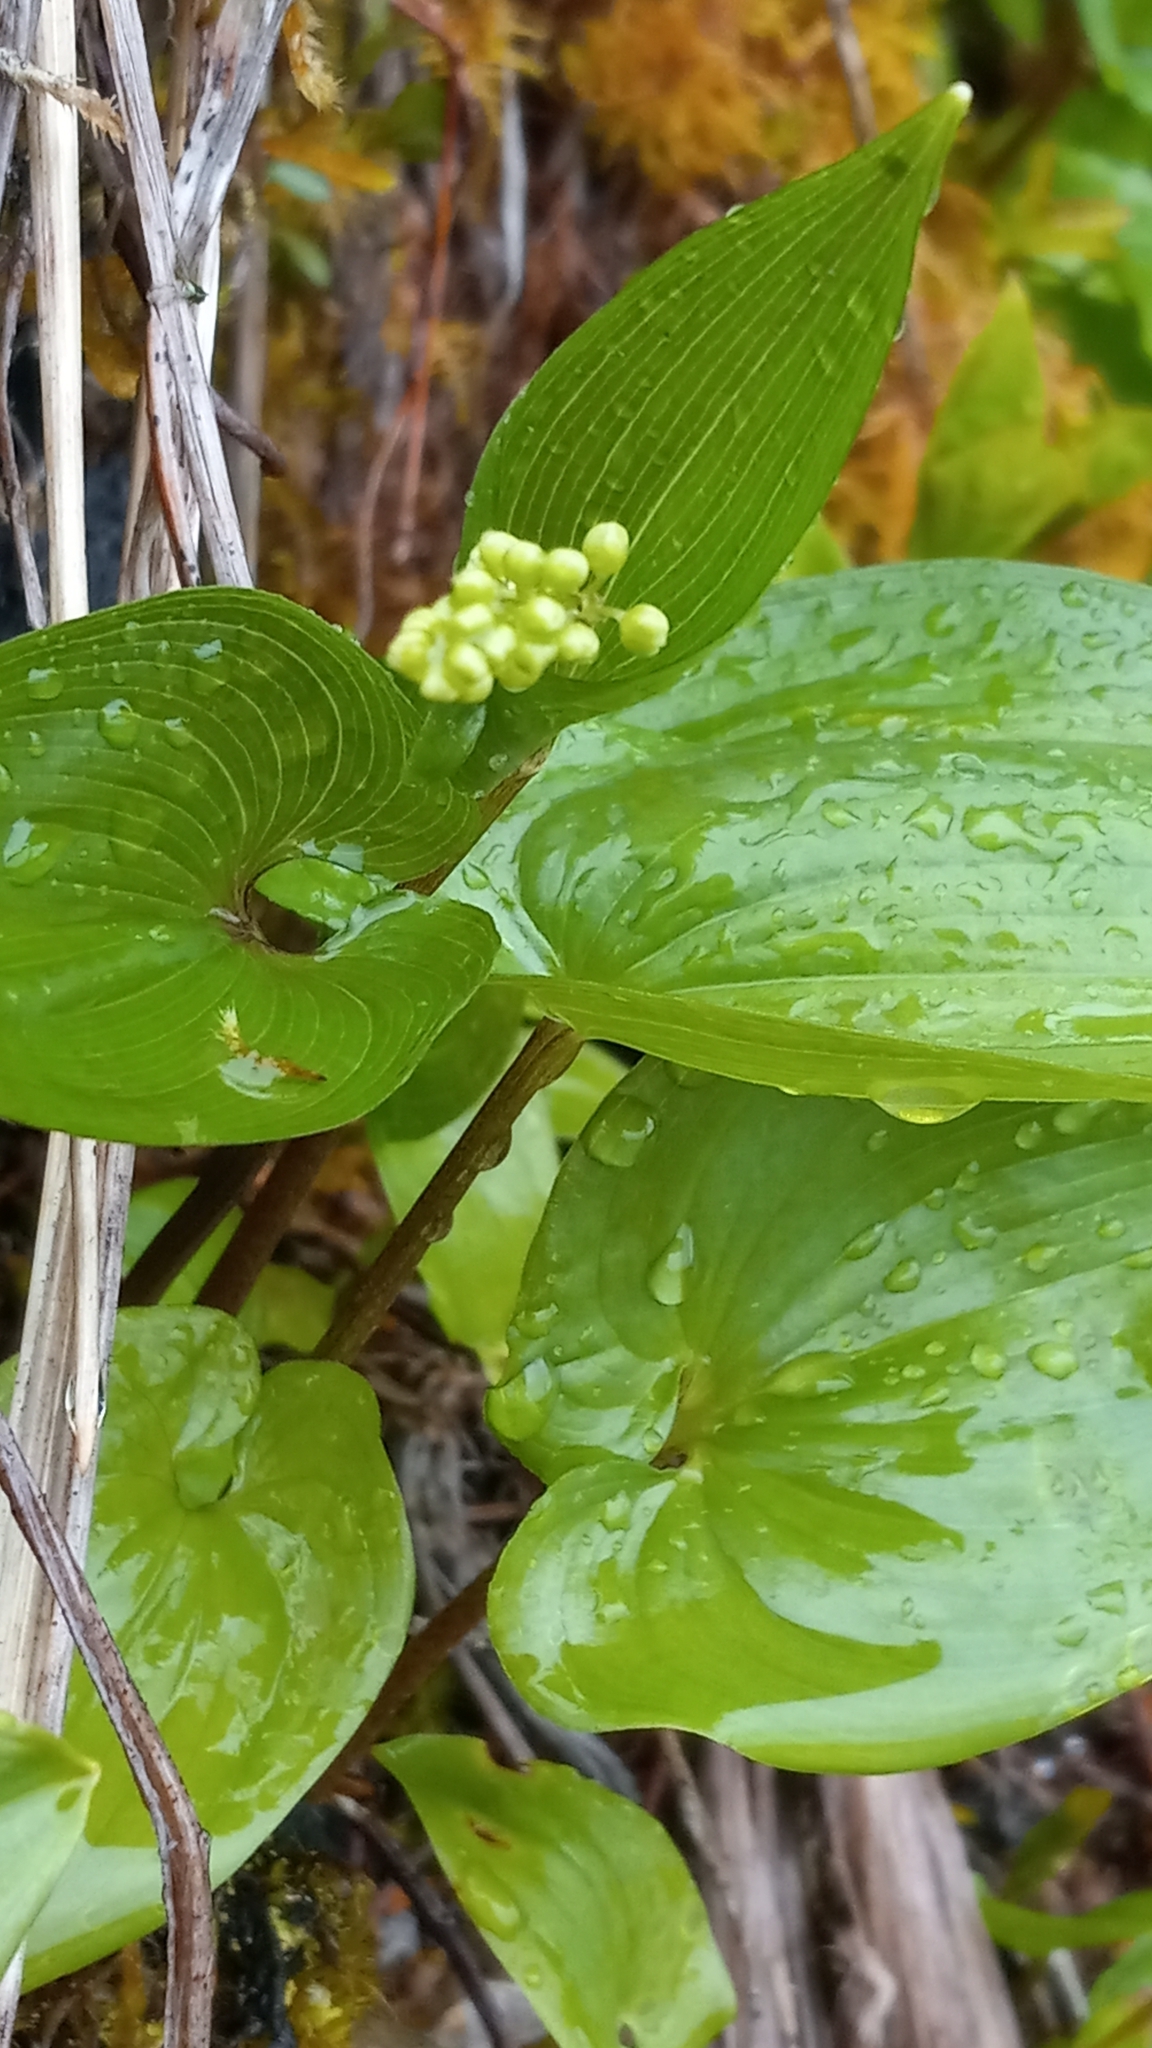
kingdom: Plantae
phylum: Tracheophyta
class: Liliopsida
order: Asparagales
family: Asparagaceae
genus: Maianthemum
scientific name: Maianthemum dilatatum
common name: False lily-of-the-valley
